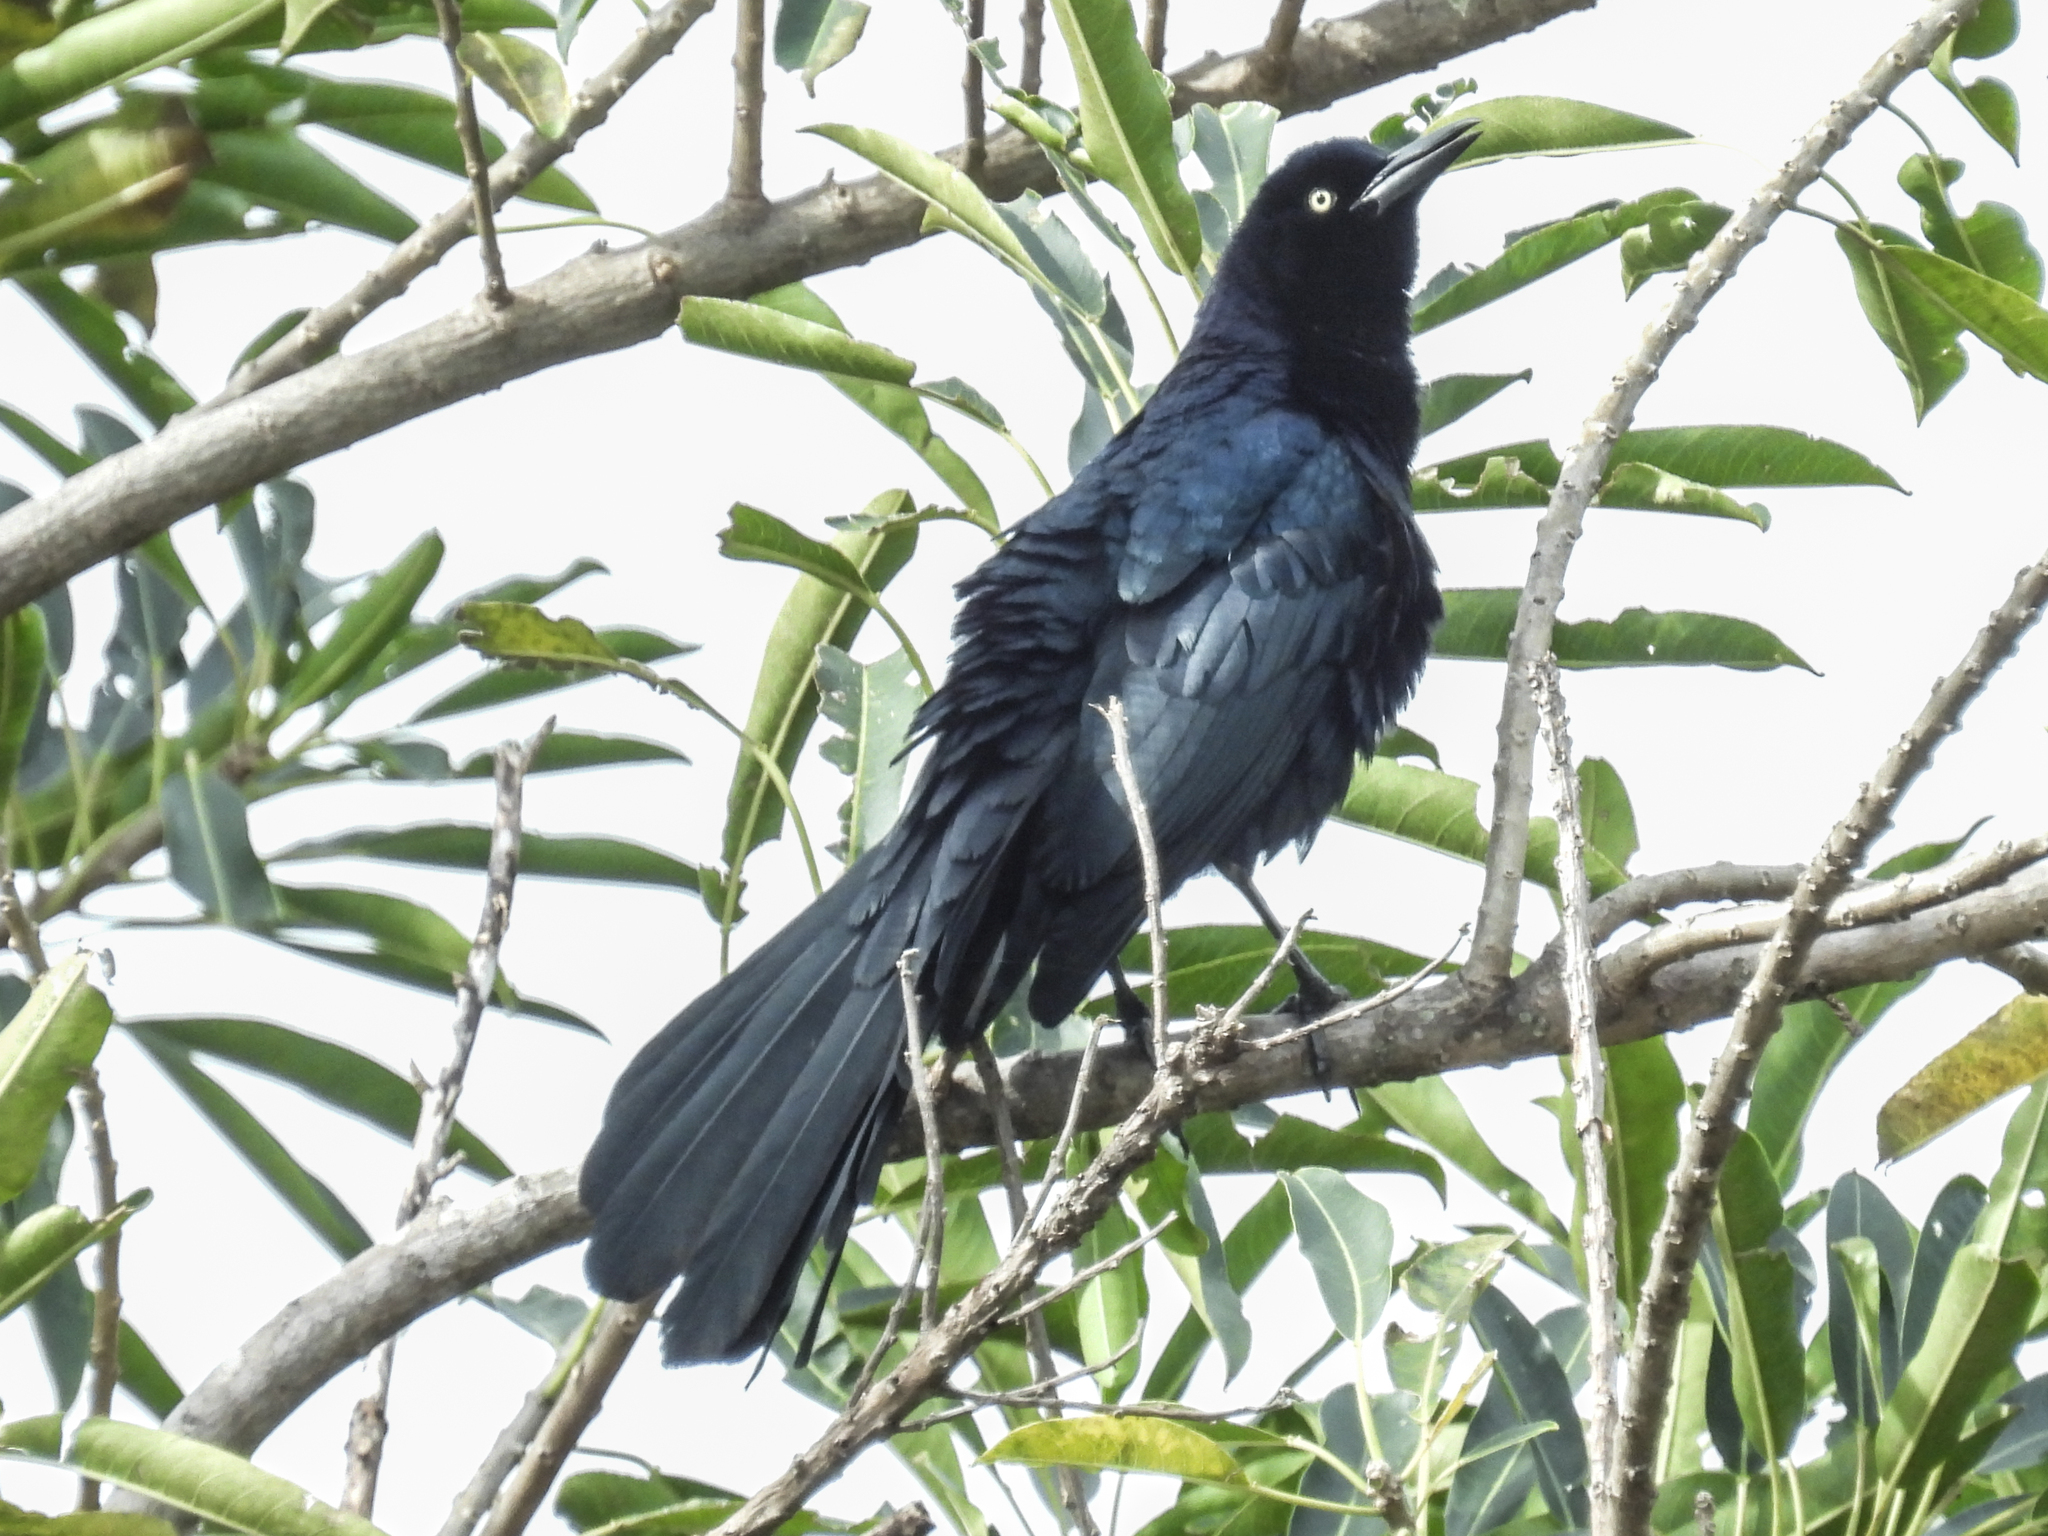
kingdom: Animalia
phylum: Chordata
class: Aves
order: Passeriformes
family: Icteridae
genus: Quiscalus
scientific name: Quiscalus mexicanus
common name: Great-tailed grackle
